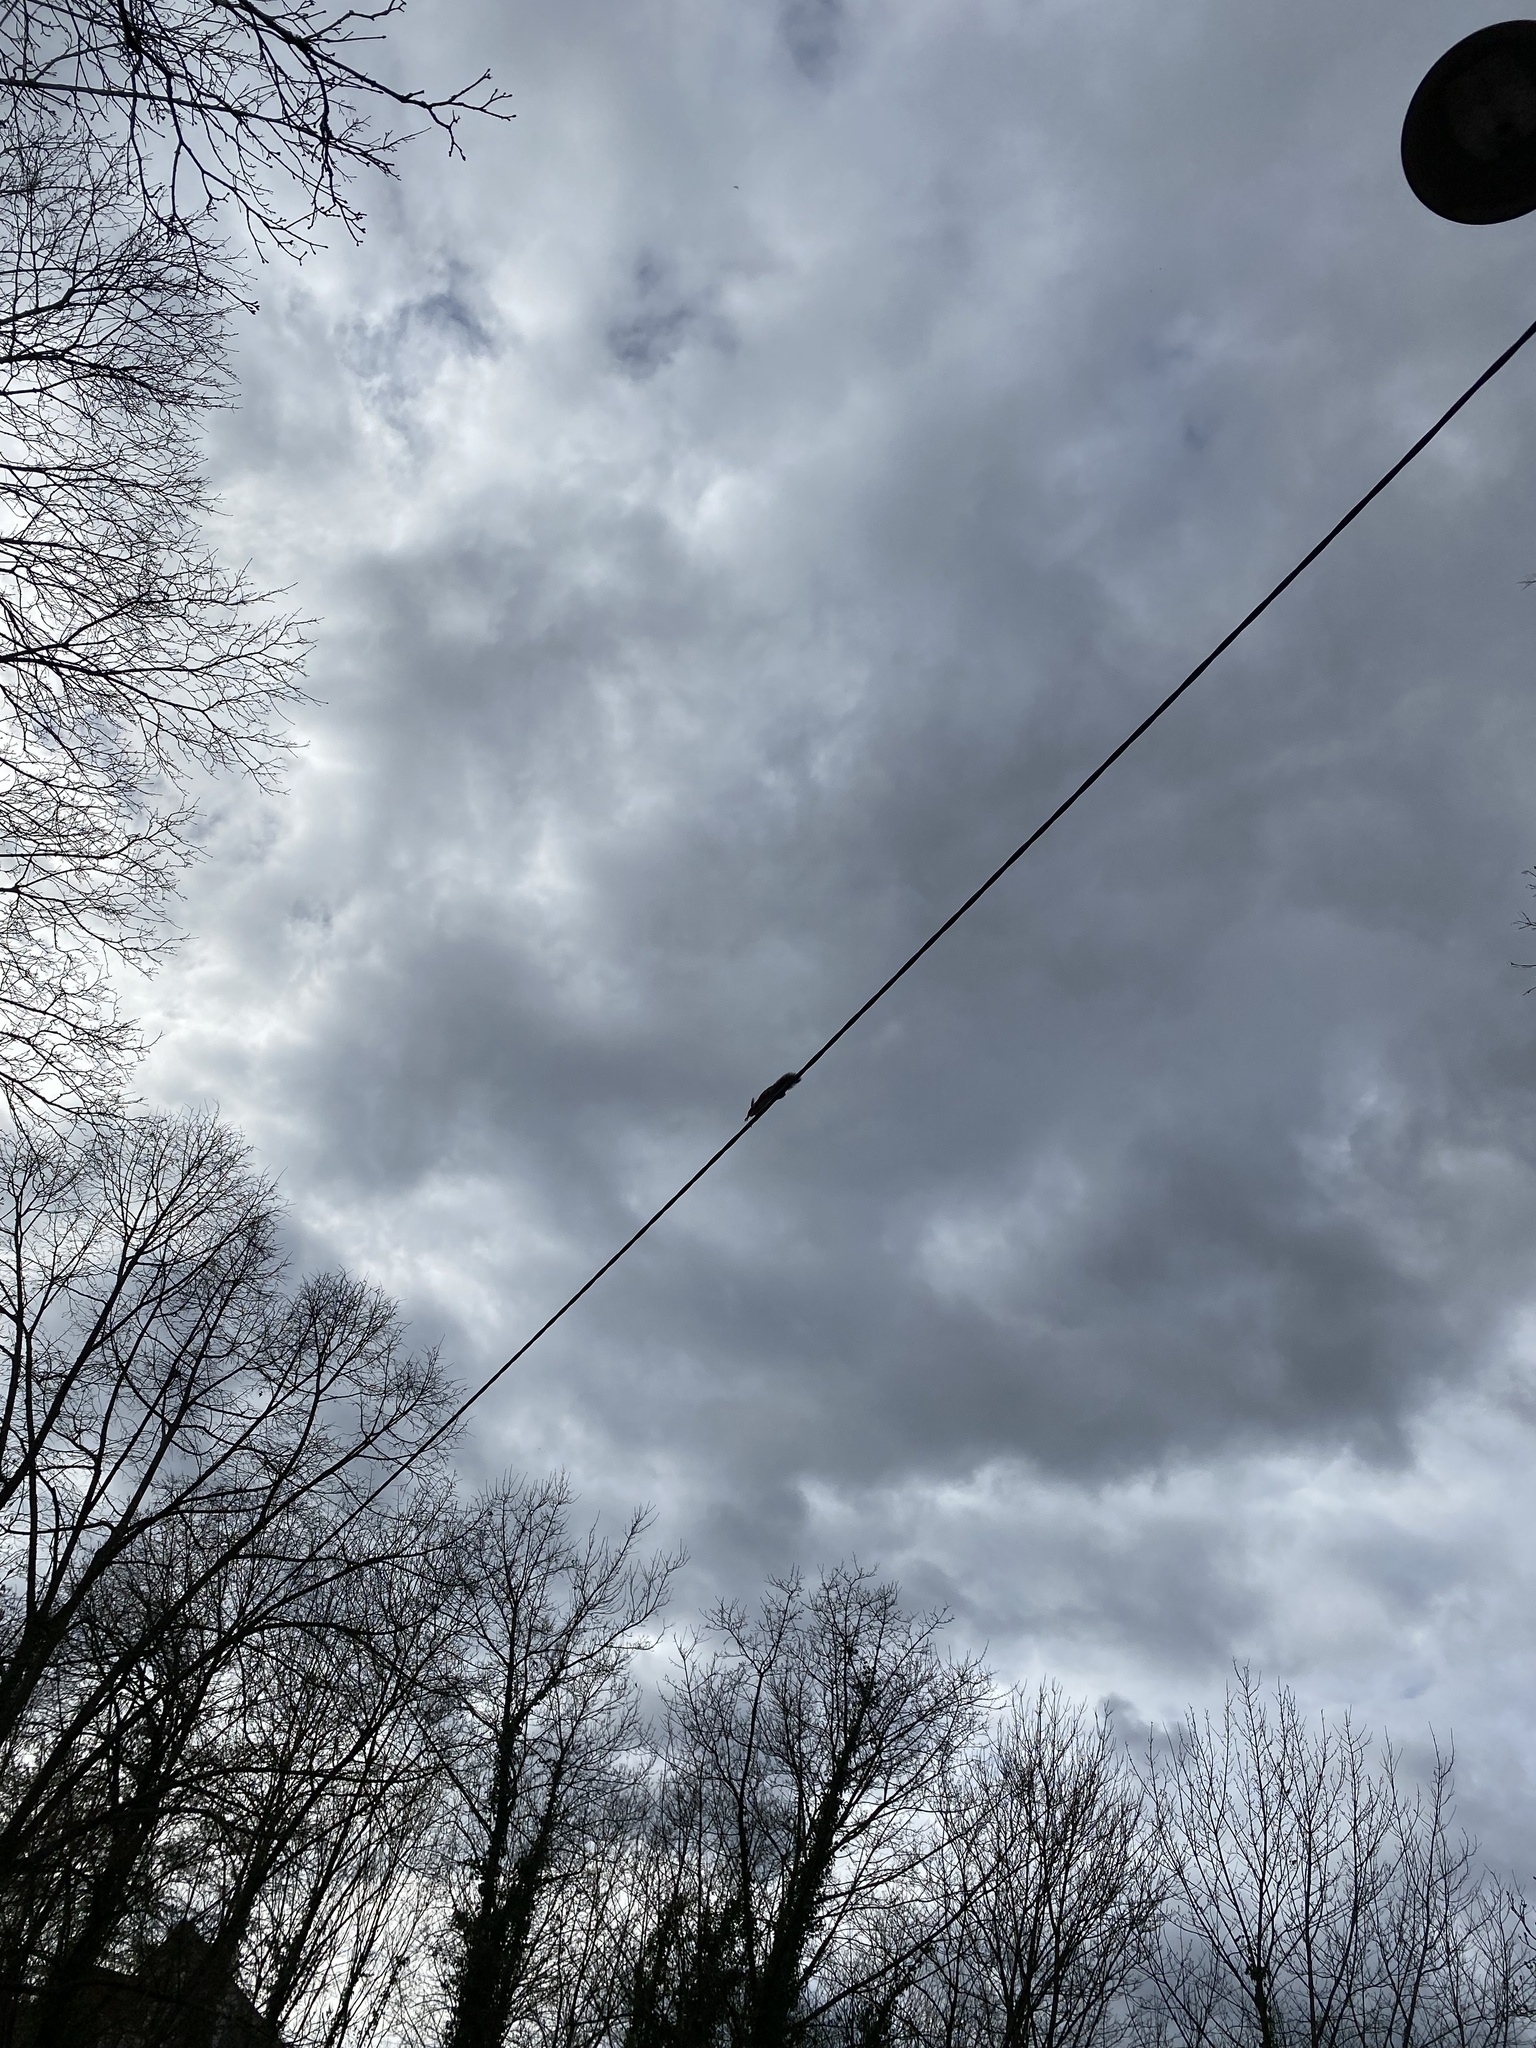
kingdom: Animalia
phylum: Chordata
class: Mammalia
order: Rodentia
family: Sciuridae
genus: Sciurus
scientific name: Sciurus vulgaris
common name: Eurasian red squirrel
